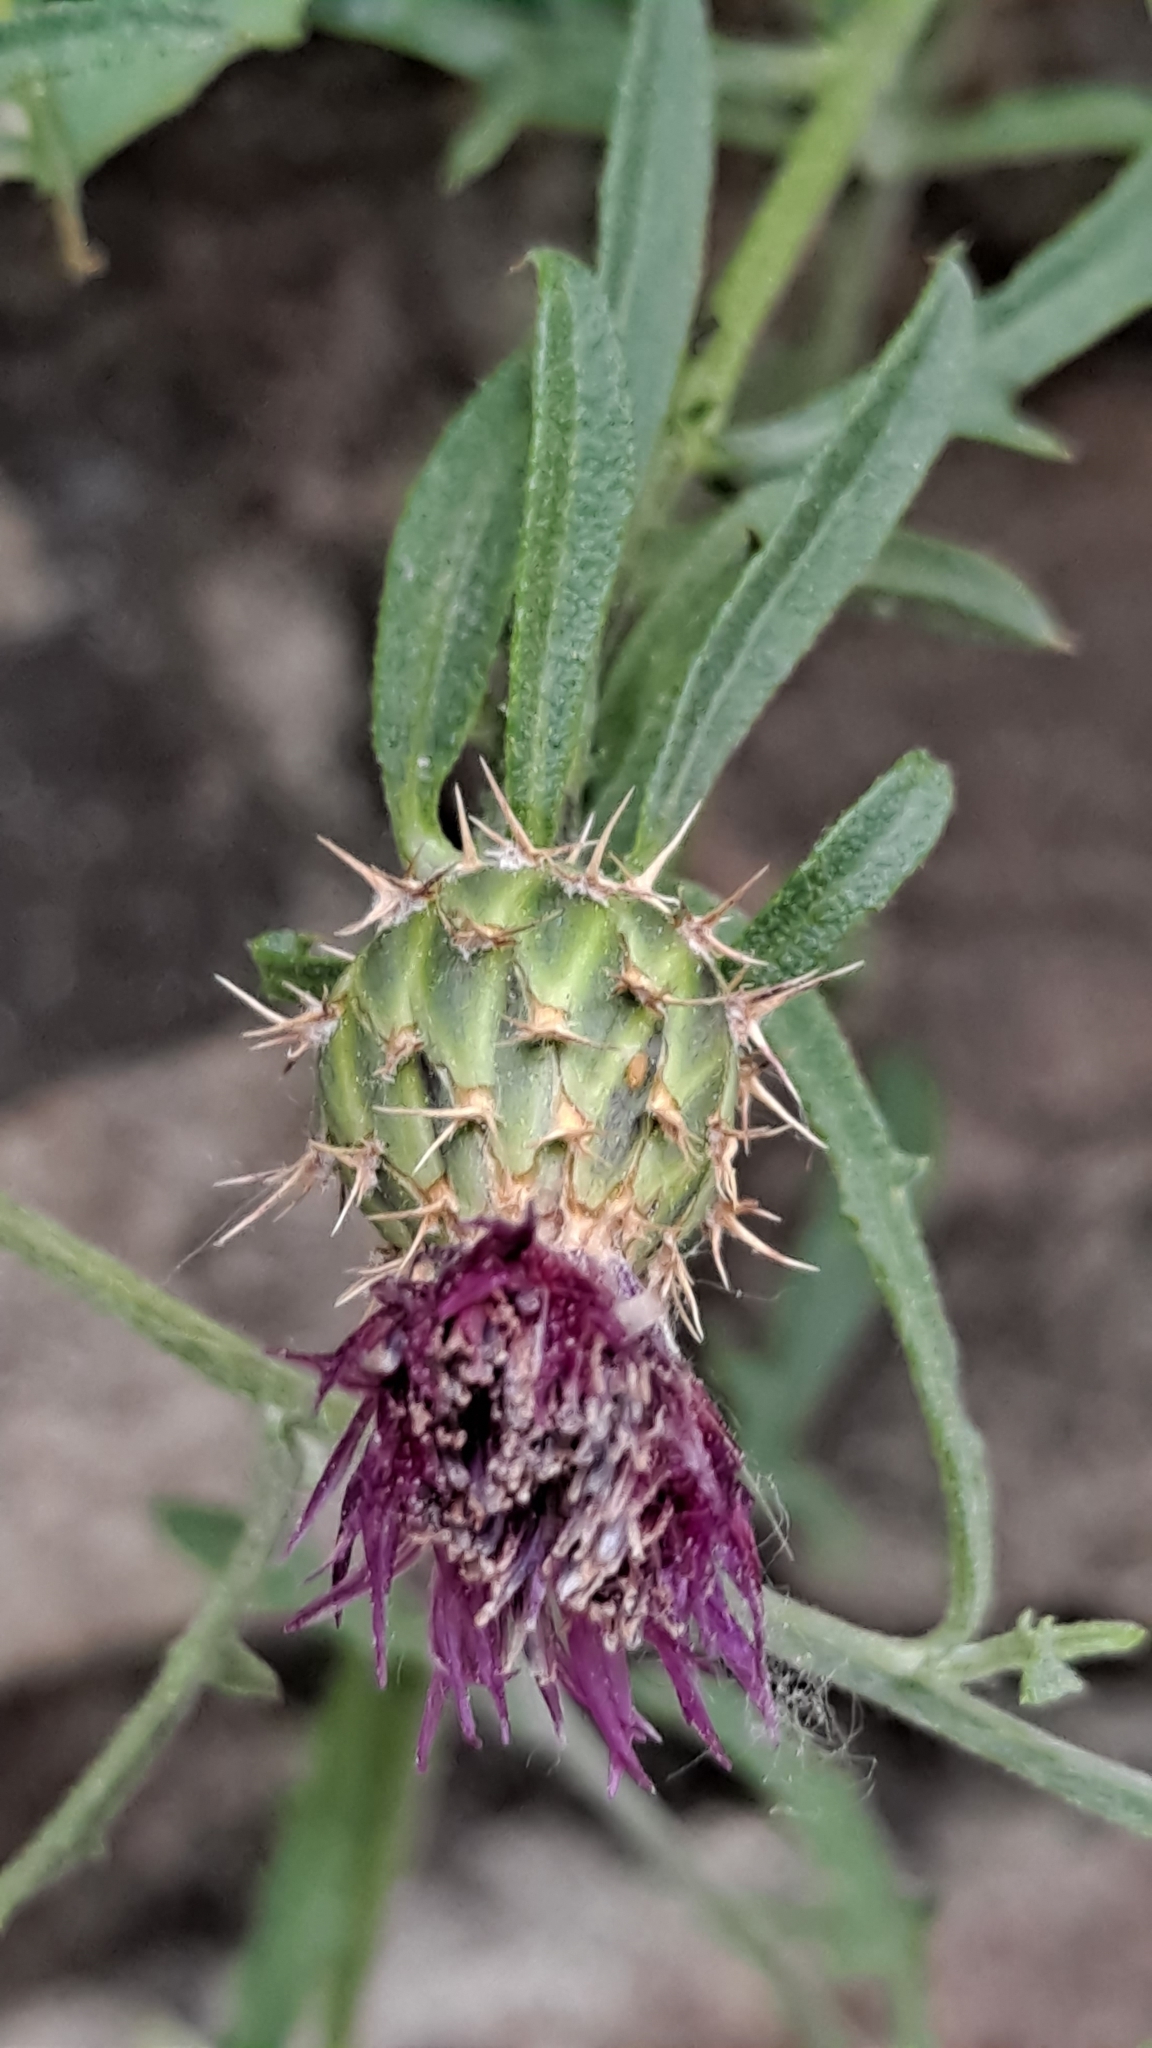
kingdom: Plantae
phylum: Tracheophyta
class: Magnoliopsida
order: Asterales
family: Asteraceae
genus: Centaurea
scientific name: Centaurea aspera
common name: Rough star-thistle
